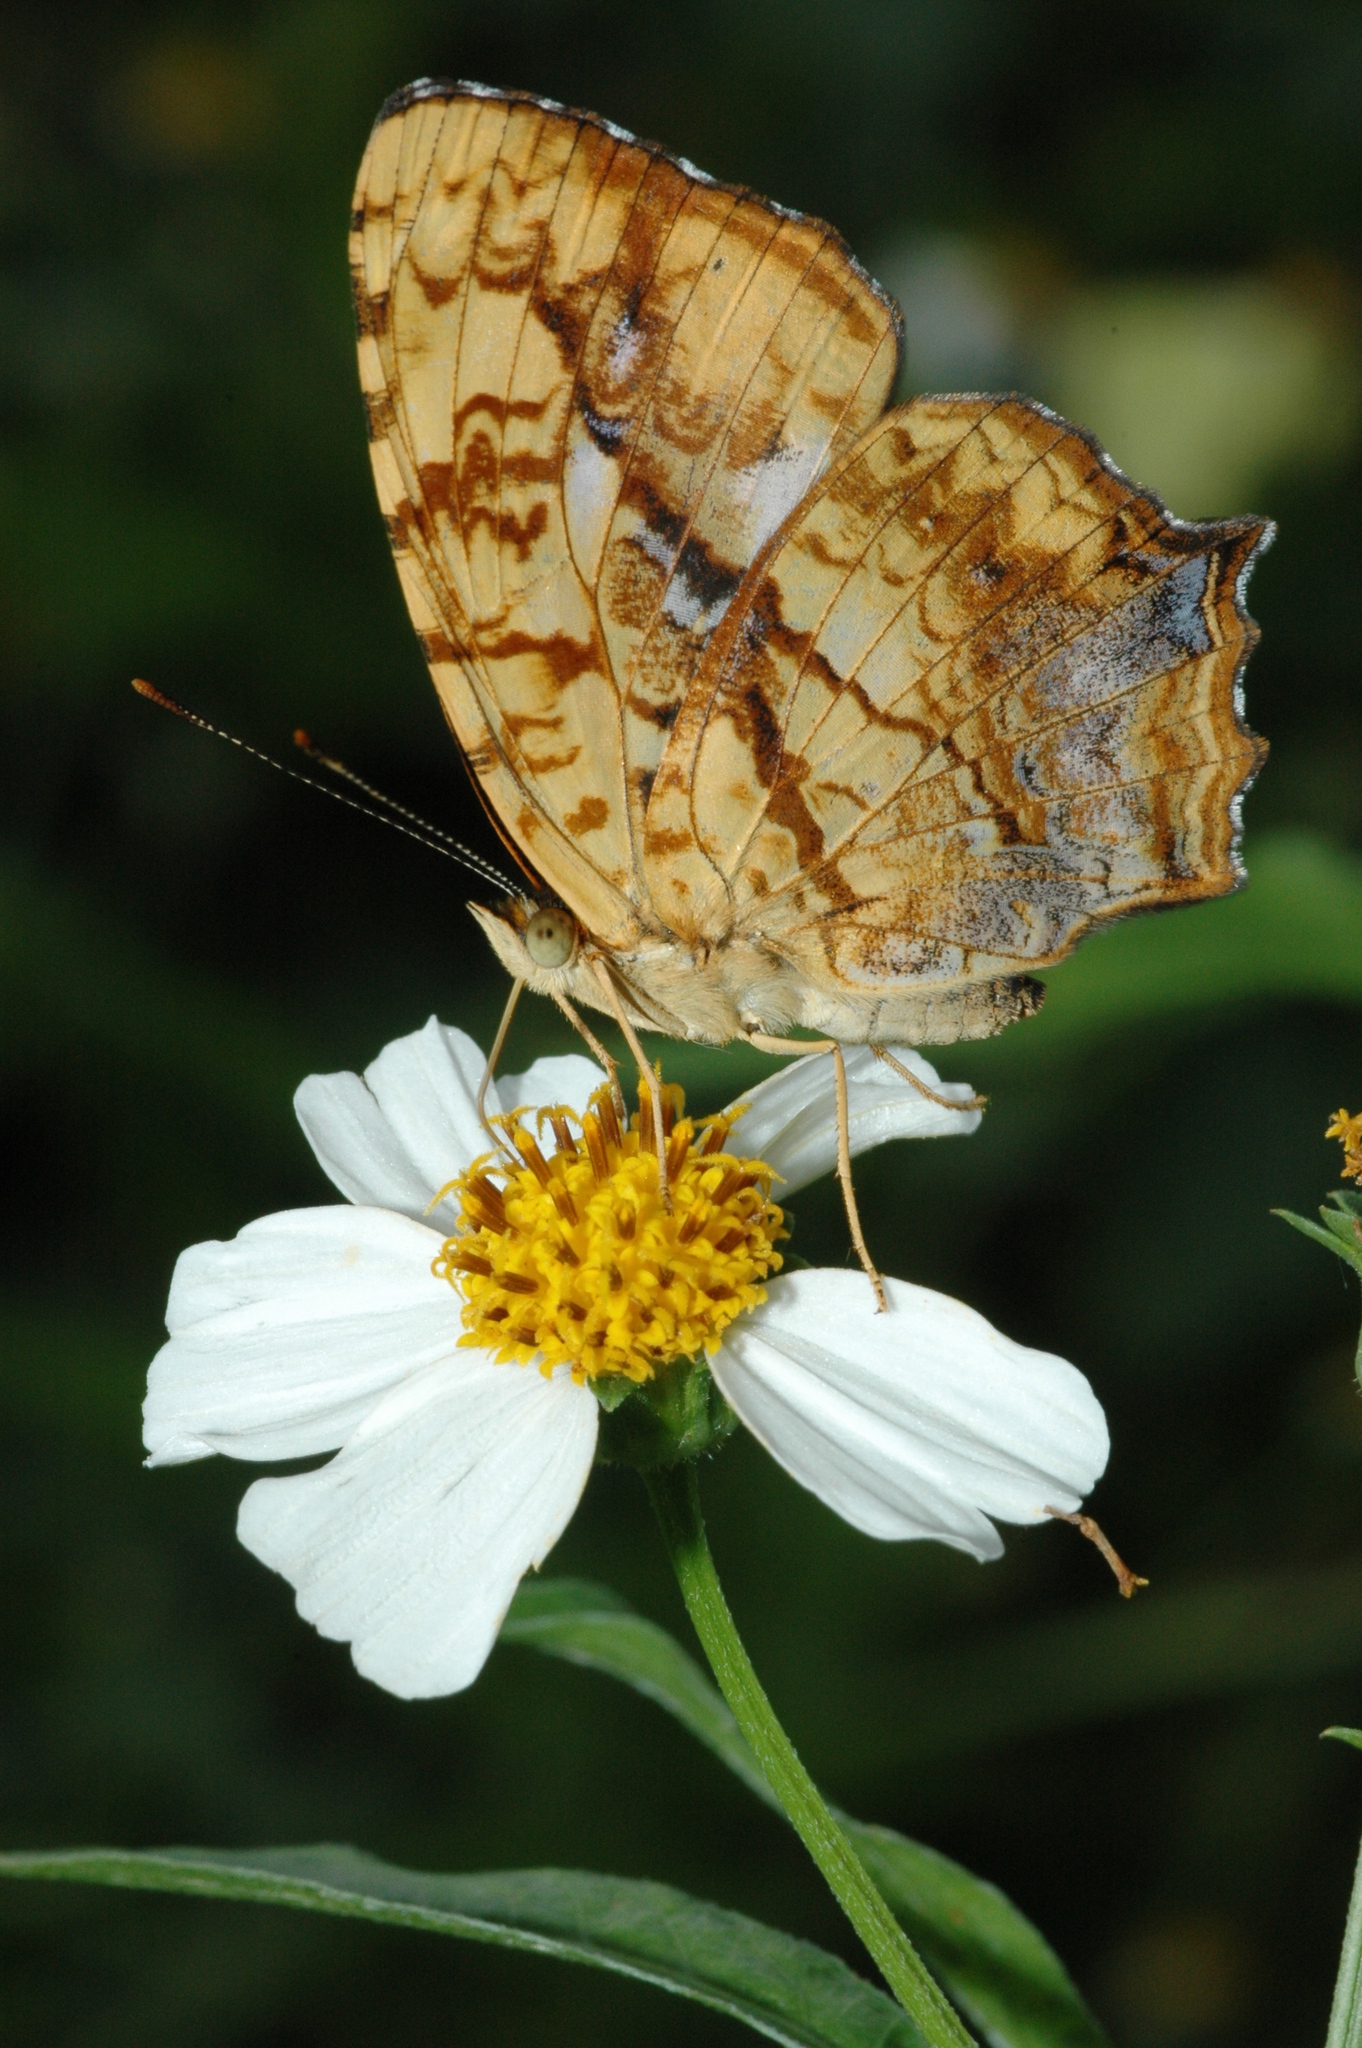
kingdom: Animalia
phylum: Arthropoda
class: Insecta
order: Lepidoptera
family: Nymphalidae
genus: Symbrenthia
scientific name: Symbrenthia hypselis
